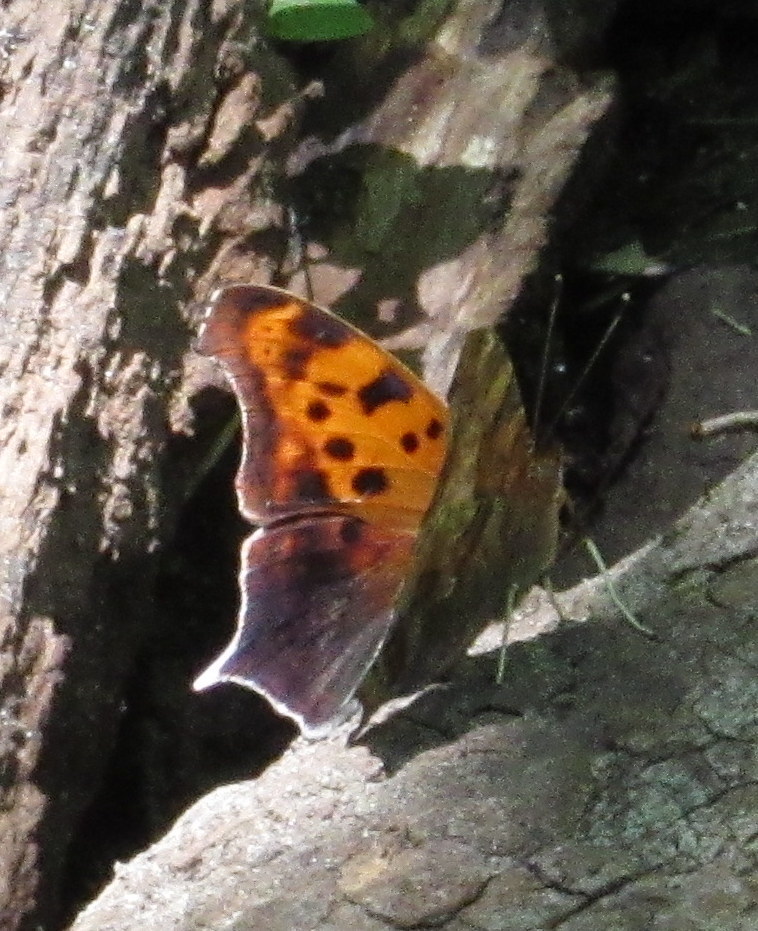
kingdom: Animalia
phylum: Arthropoda
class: Insecta
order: Lepidoptera
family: Nymphalidae
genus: Polygonia
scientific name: Polygonia interrogationis
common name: Question mark
